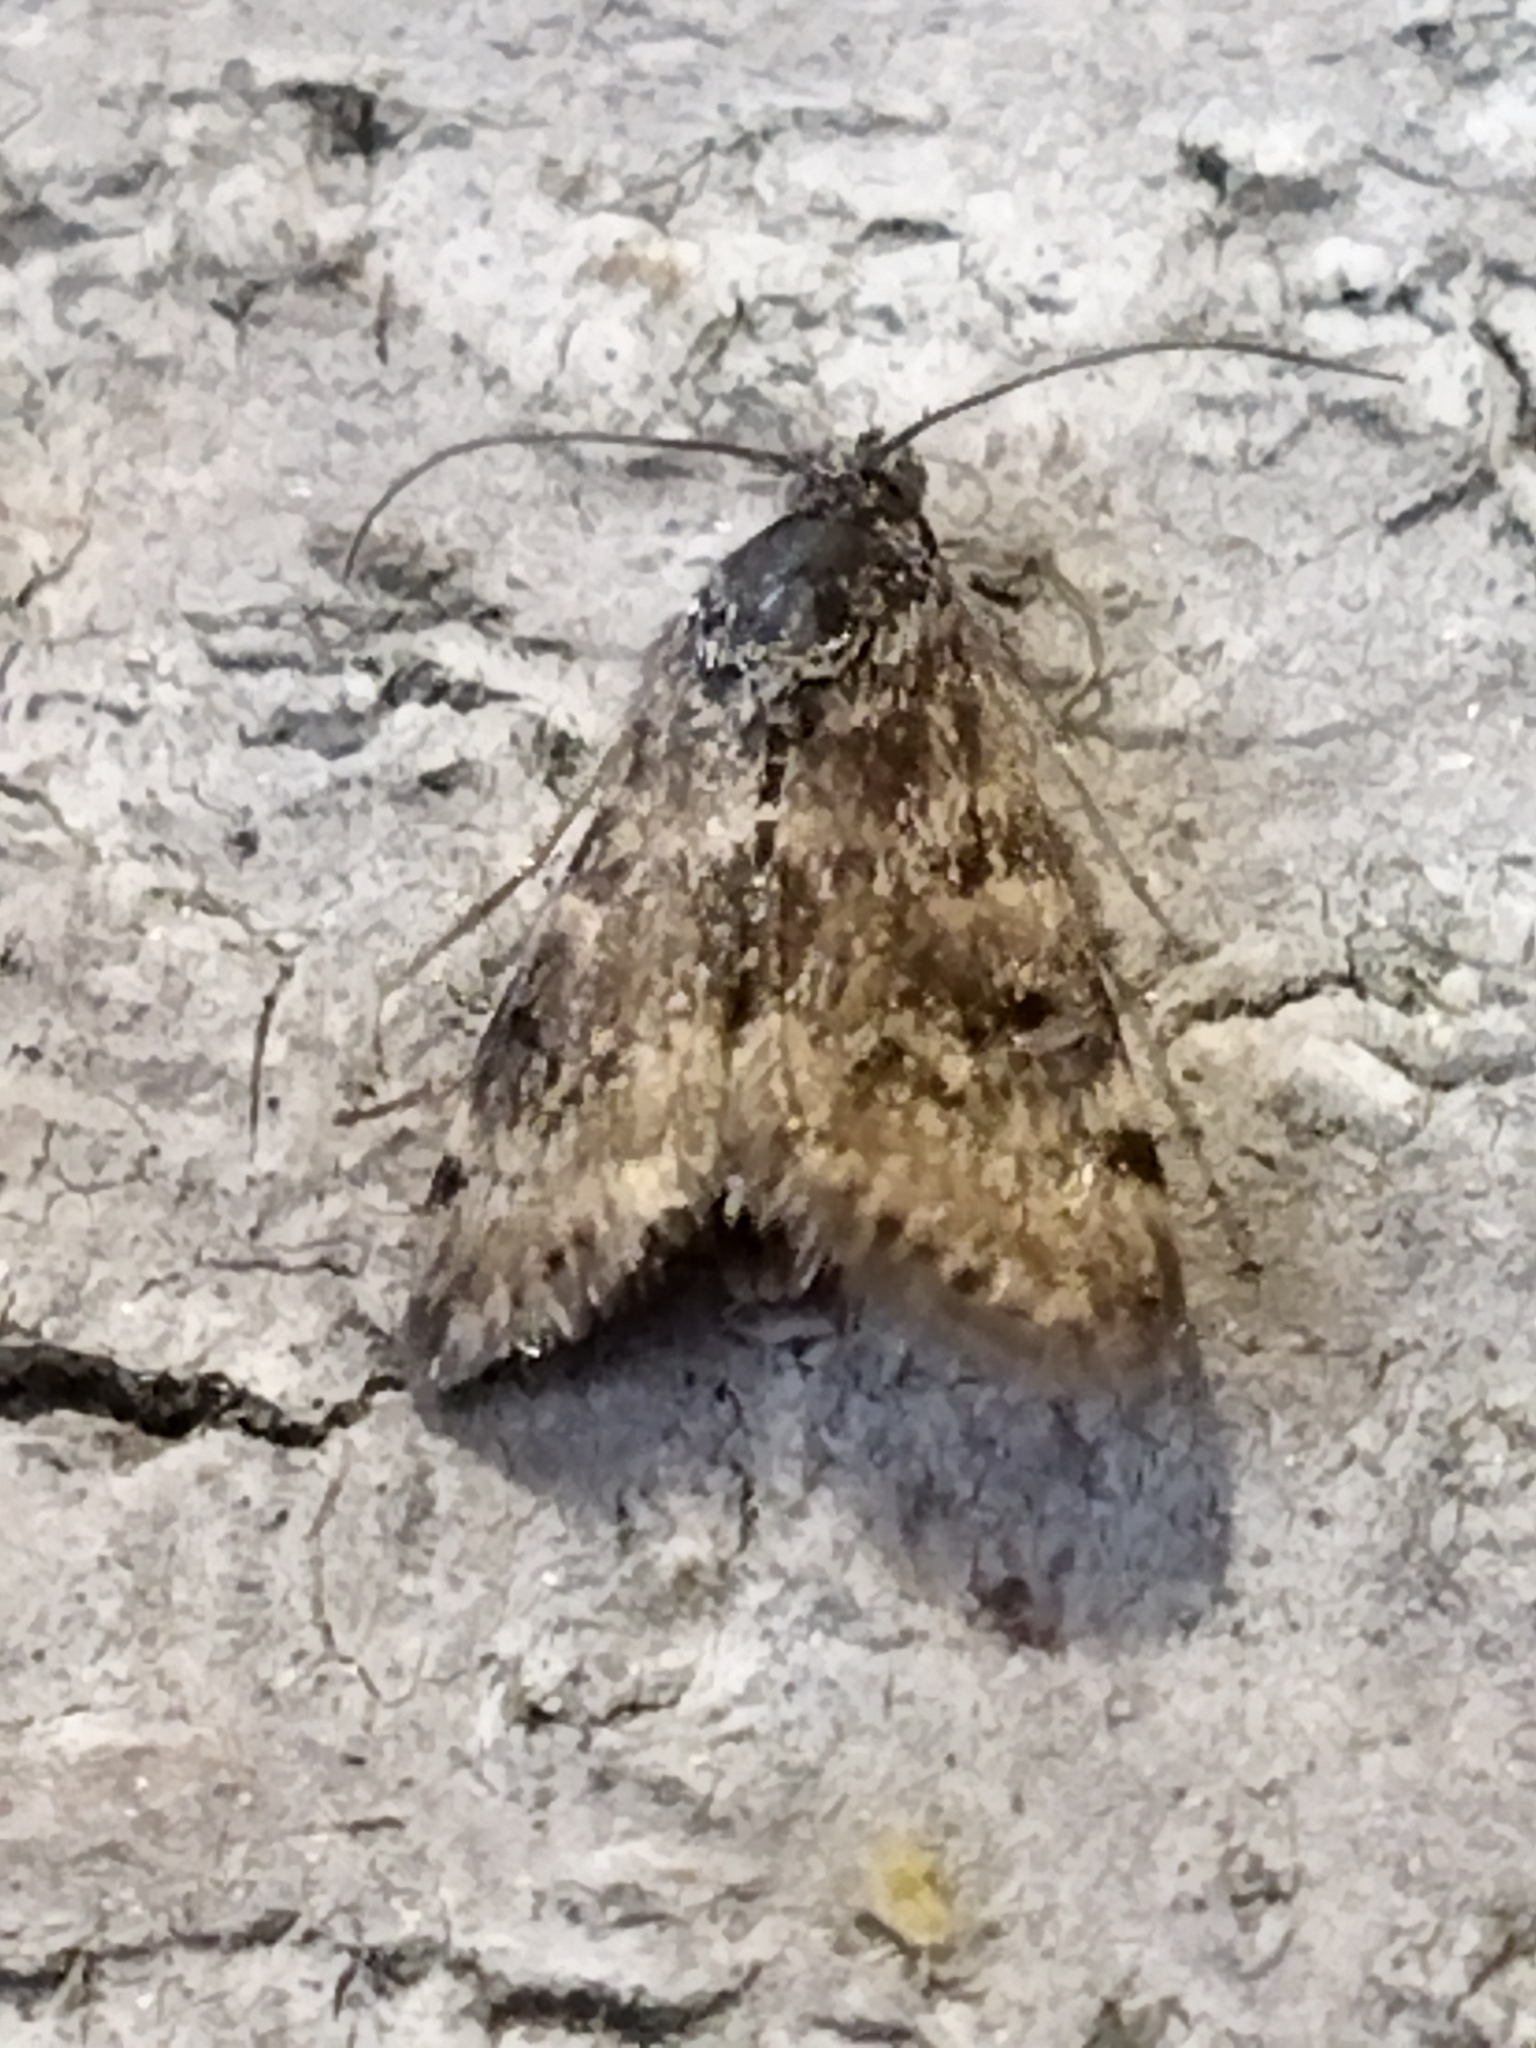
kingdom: Animalia
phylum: Arthropoda
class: Insecta
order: Lepidoptera
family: Crambidae
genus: Noctuelia
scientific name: Noctuelia Aporodes floralis
